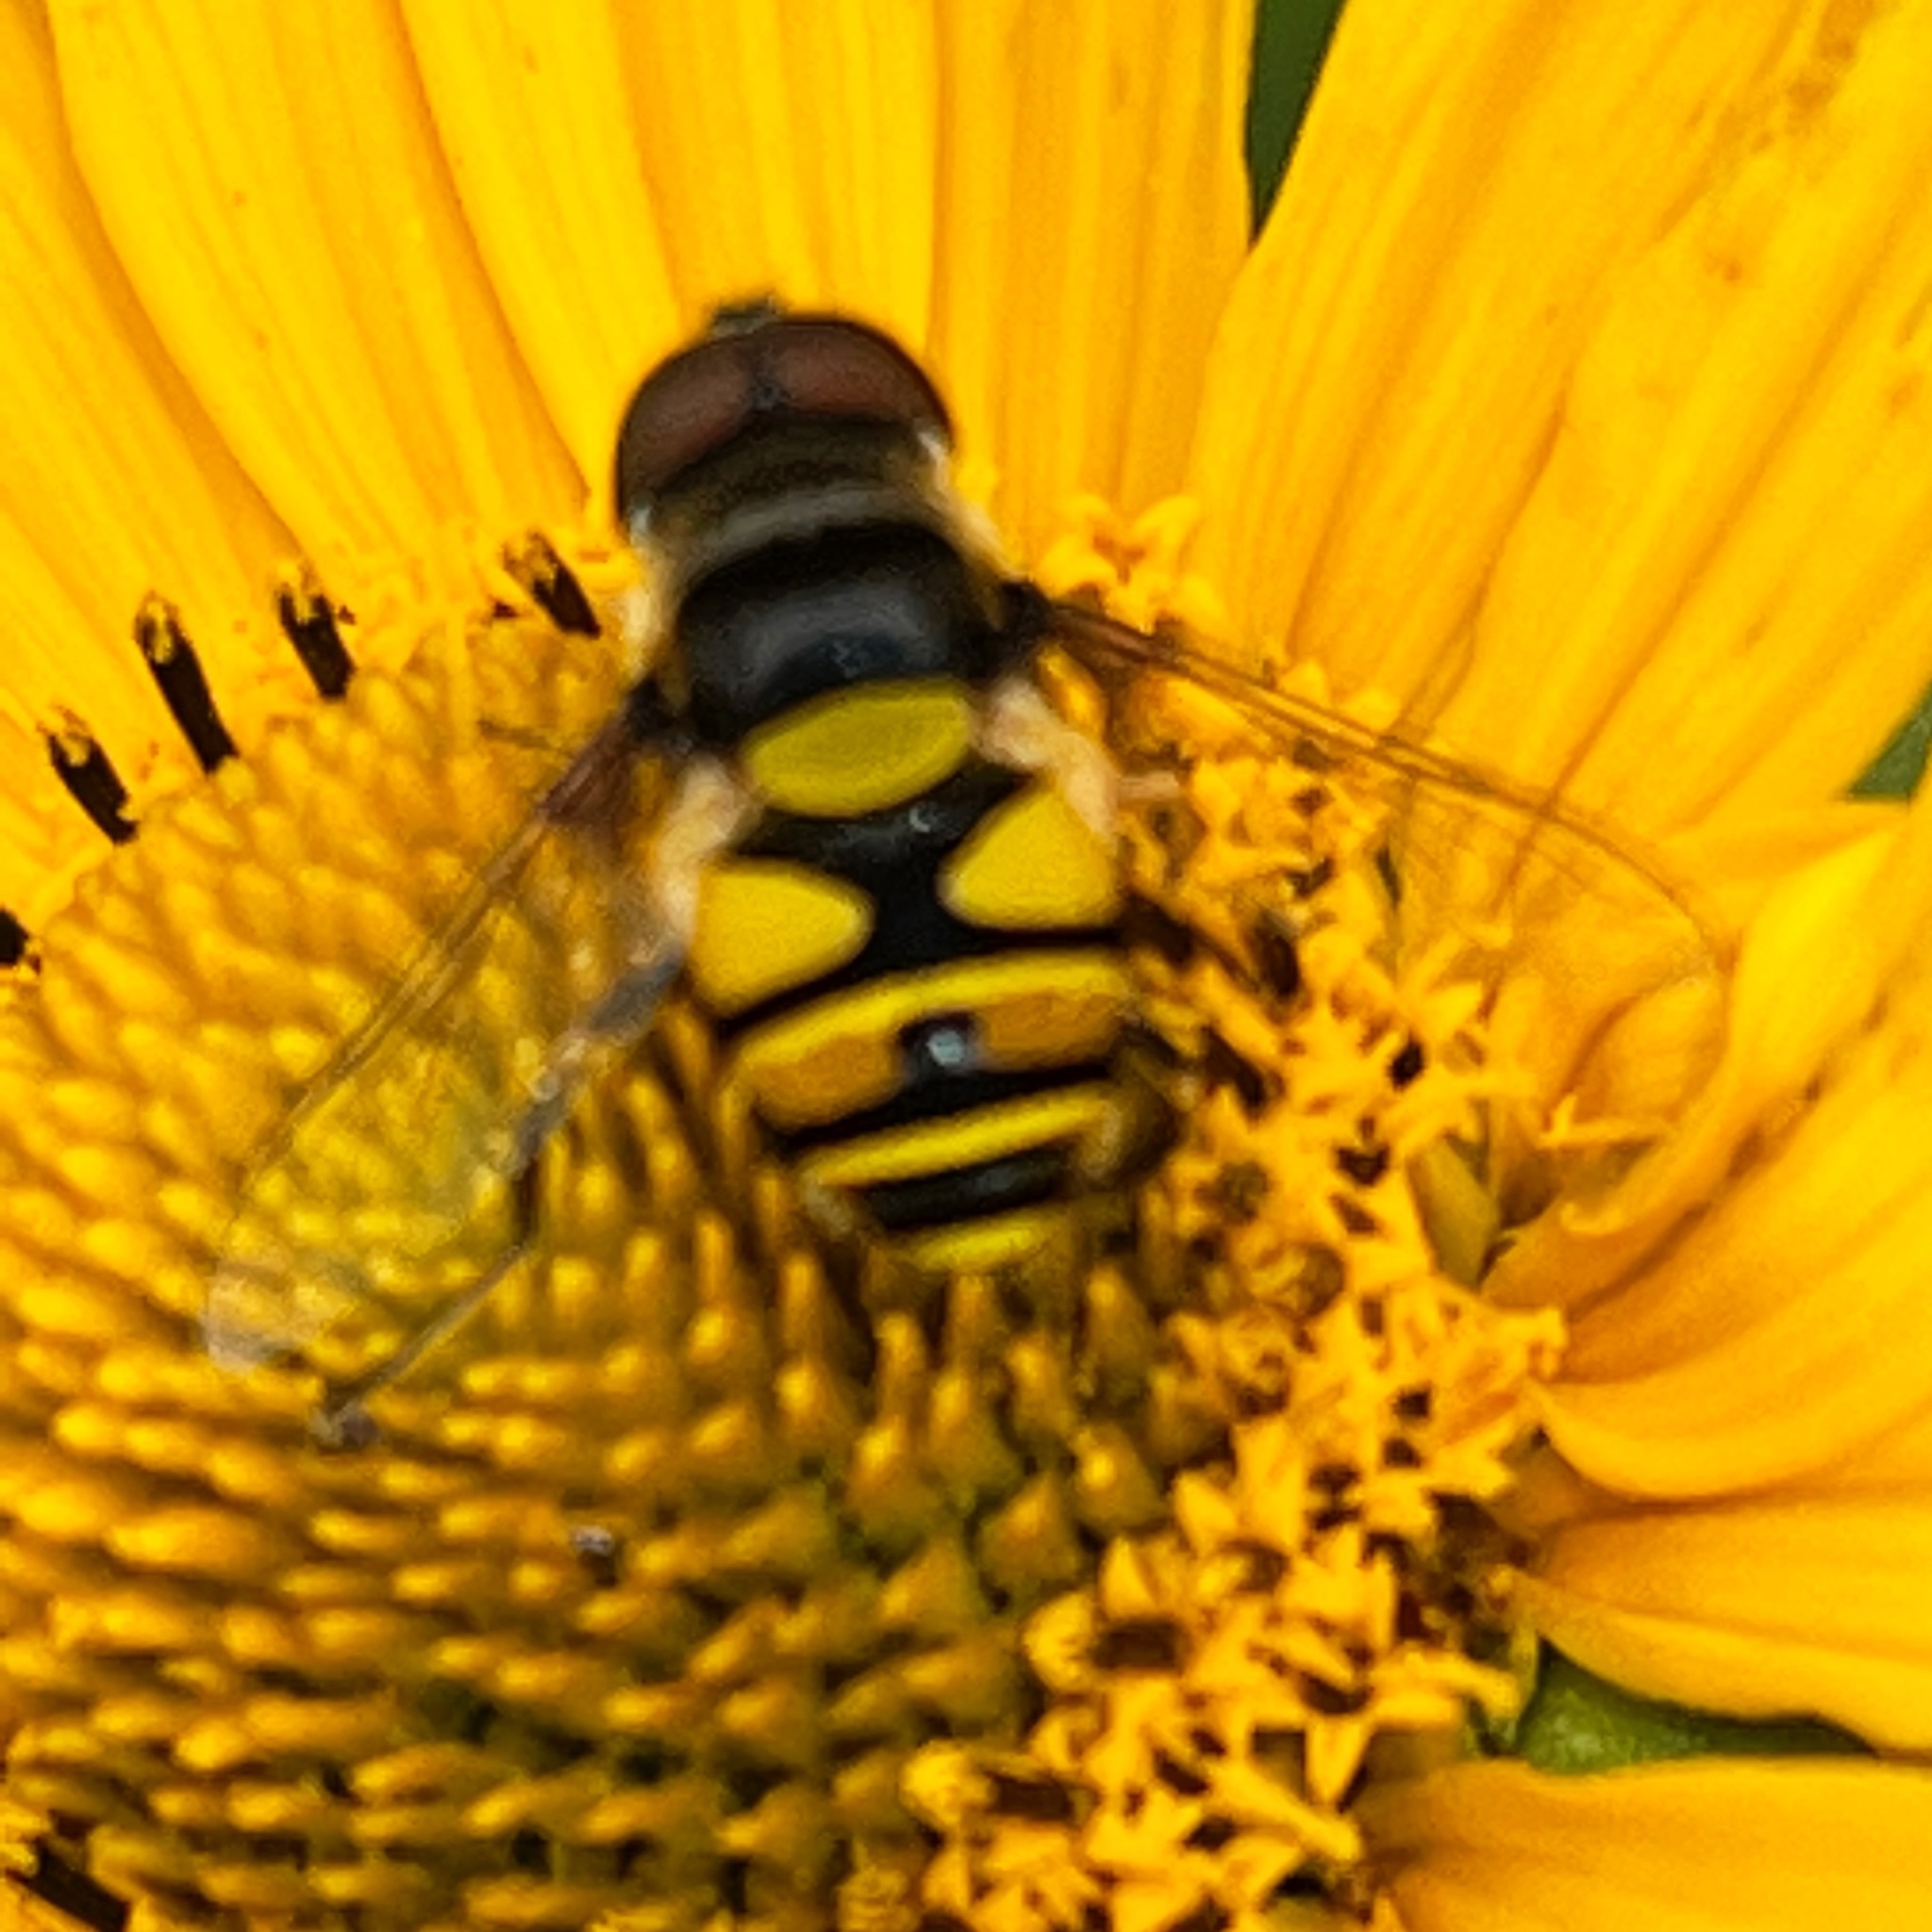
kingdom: Animalia
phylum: Arthropoda
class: Insecta
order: Diptera
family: Syrphidae
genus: Eristalis
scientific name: Eristalis transversa
